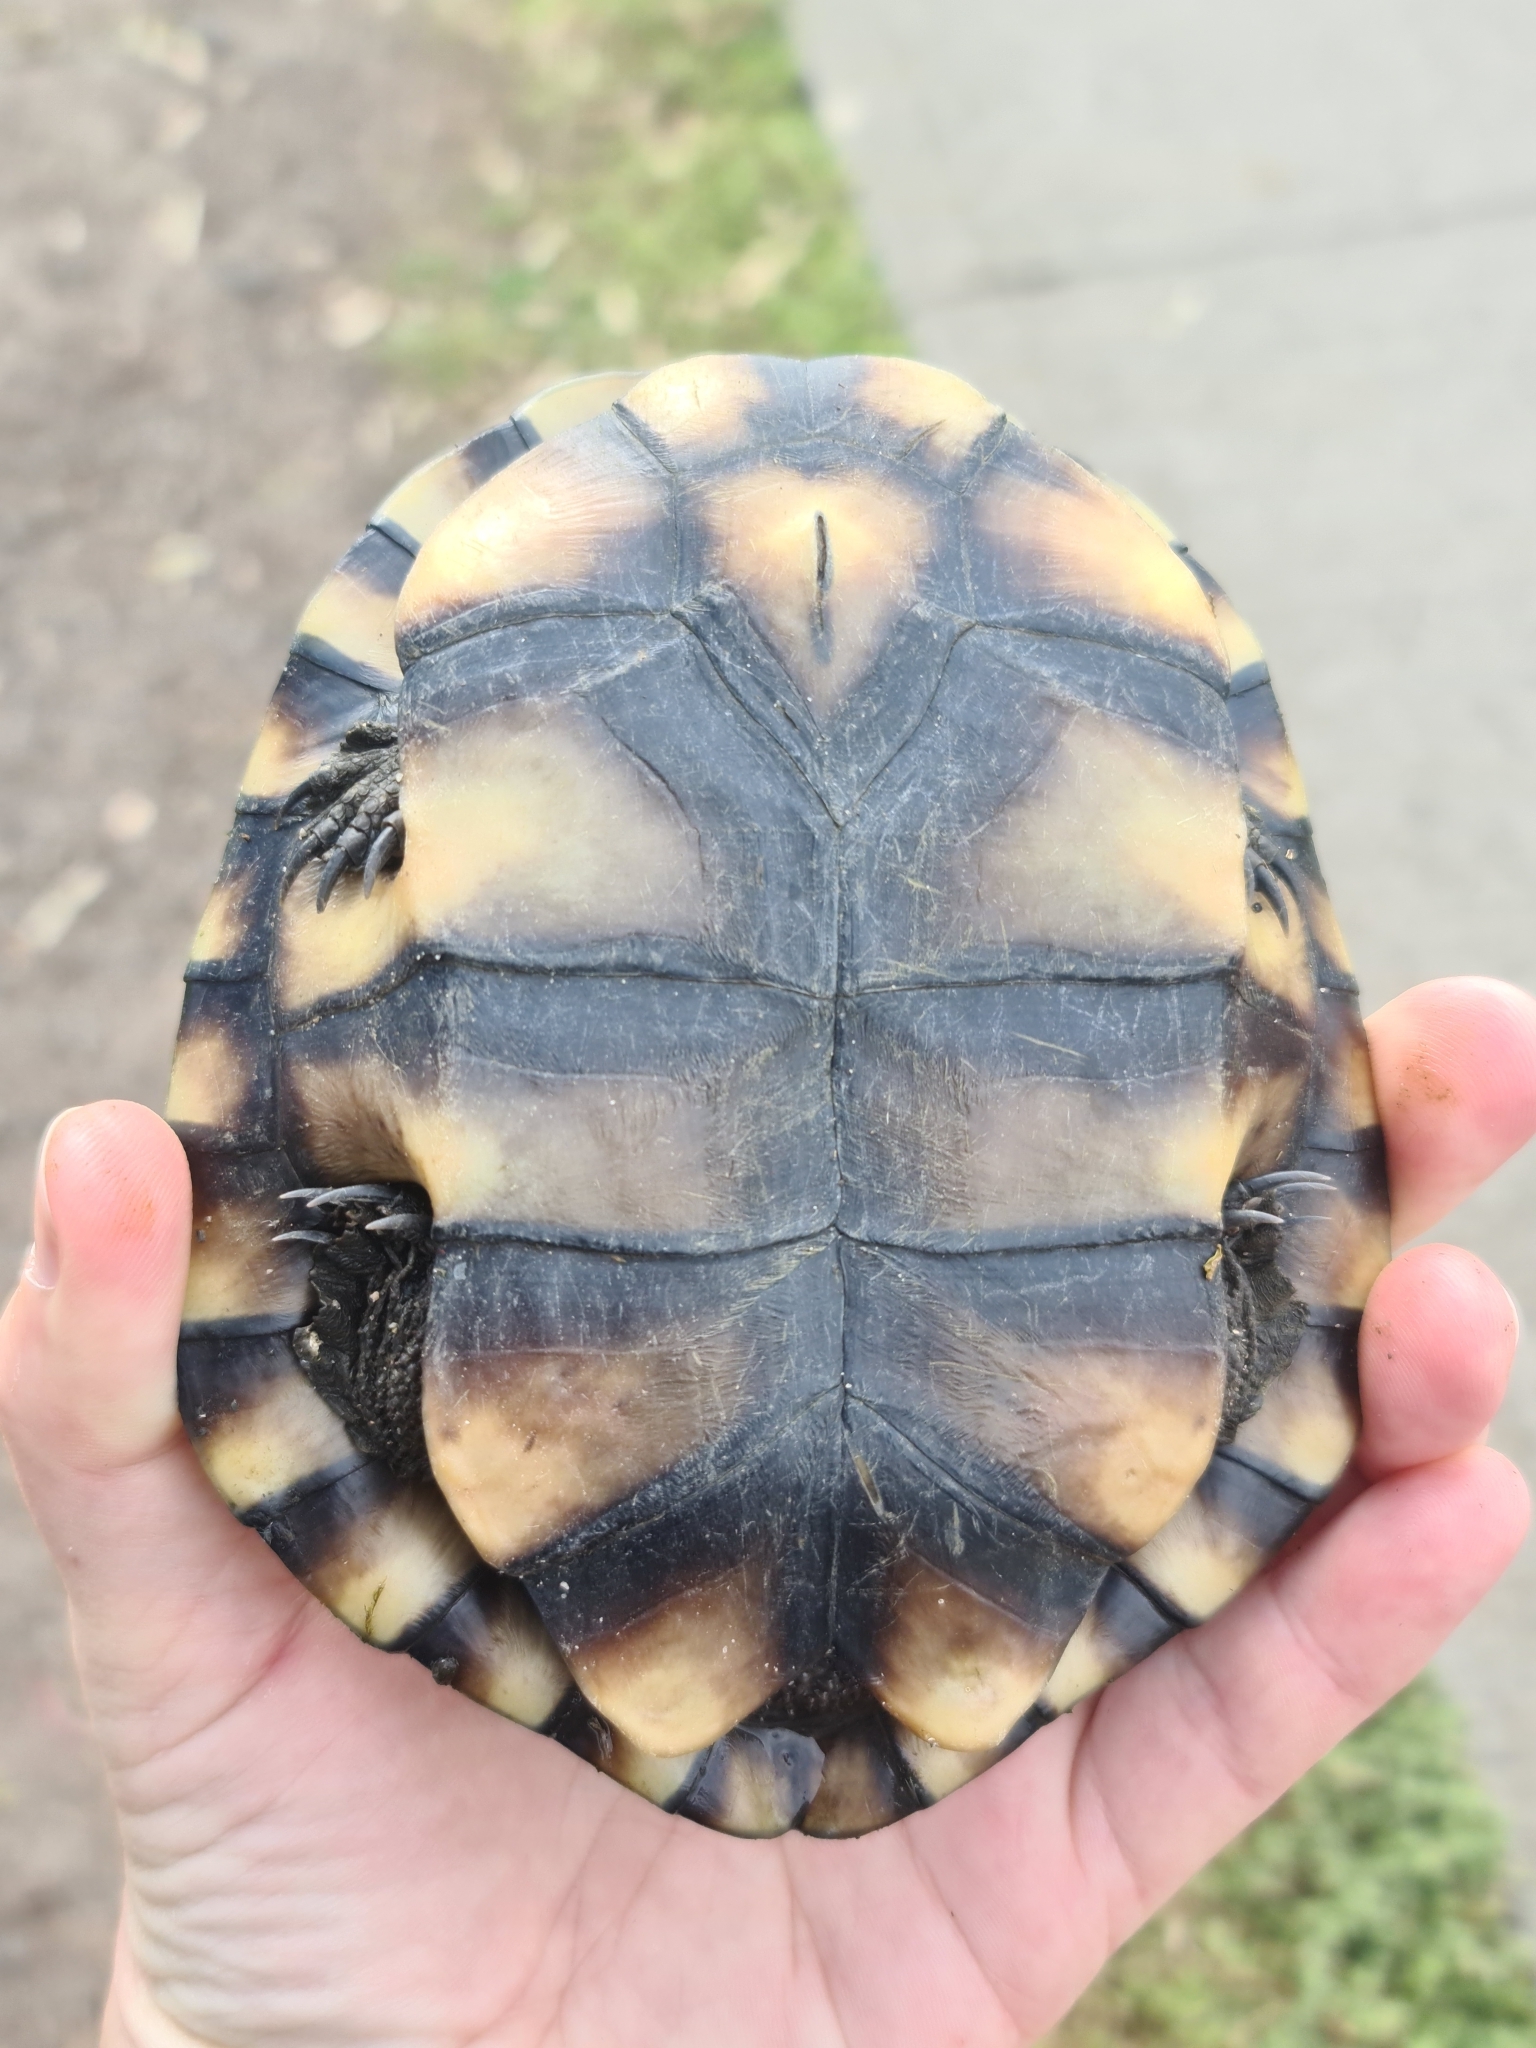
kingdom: Animalia
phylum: Chordata
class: Testudines
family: Chelidae
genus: Chelodina
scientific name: Chelodina longicollis
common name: Eastern snake-necked turtle
